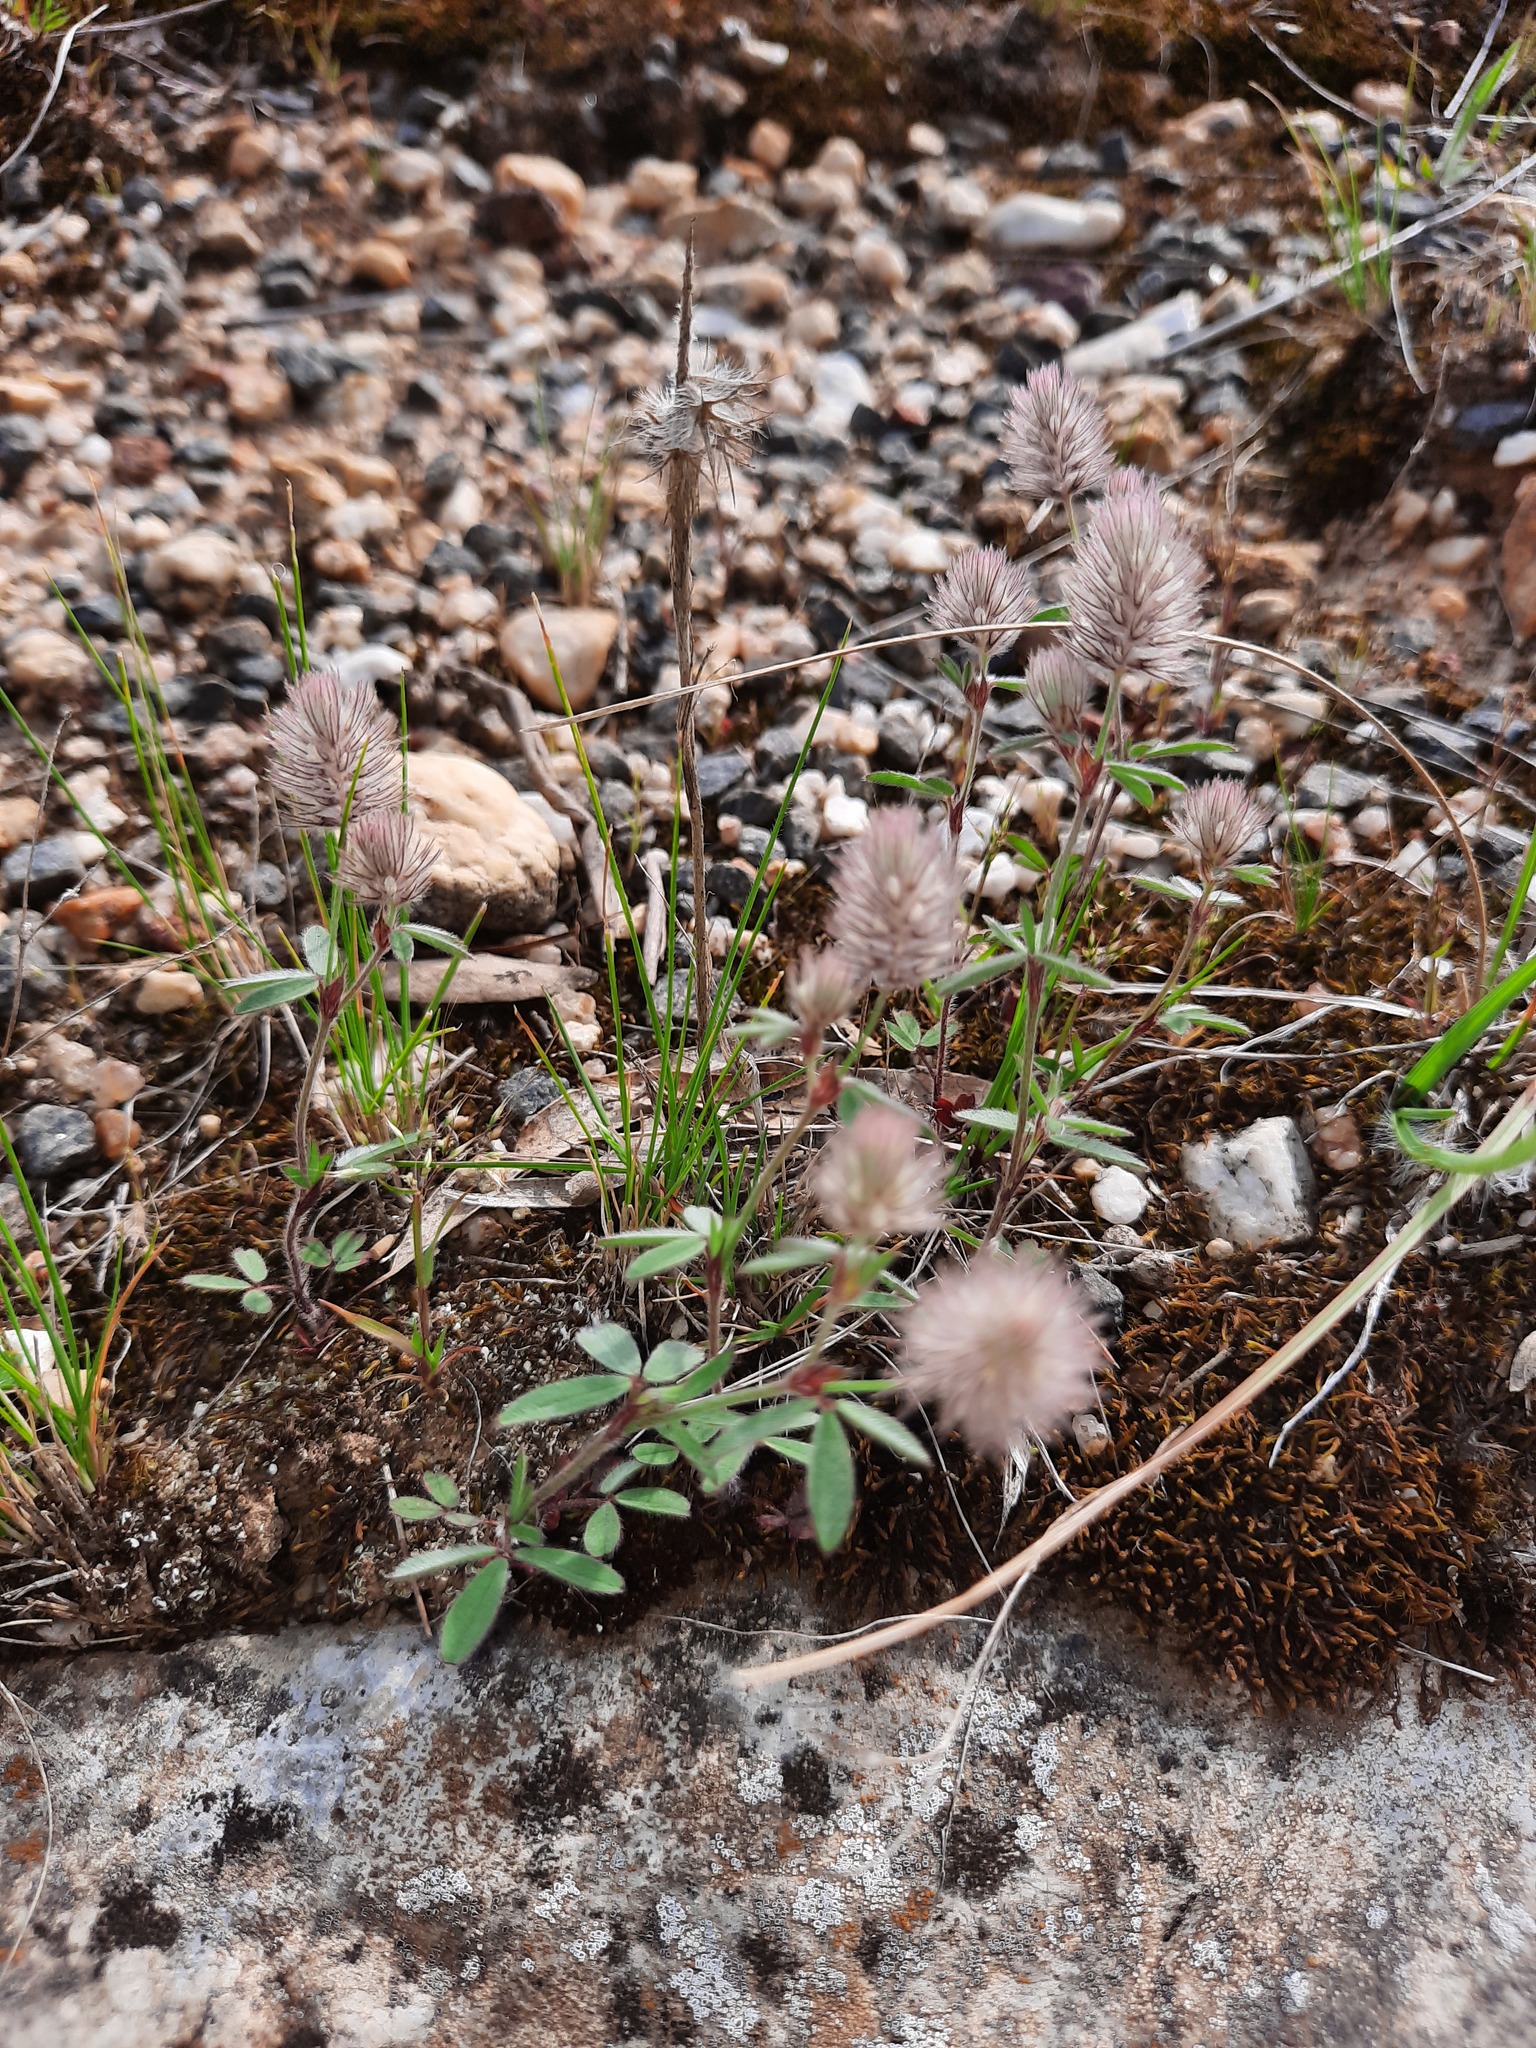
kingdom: Plantae
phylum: Tracheophyta
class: Magnoliopsida
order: Fabales
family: Fabaceae
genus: Trifolium
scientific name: Trifolium arvense
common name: Hare's-foot clover
